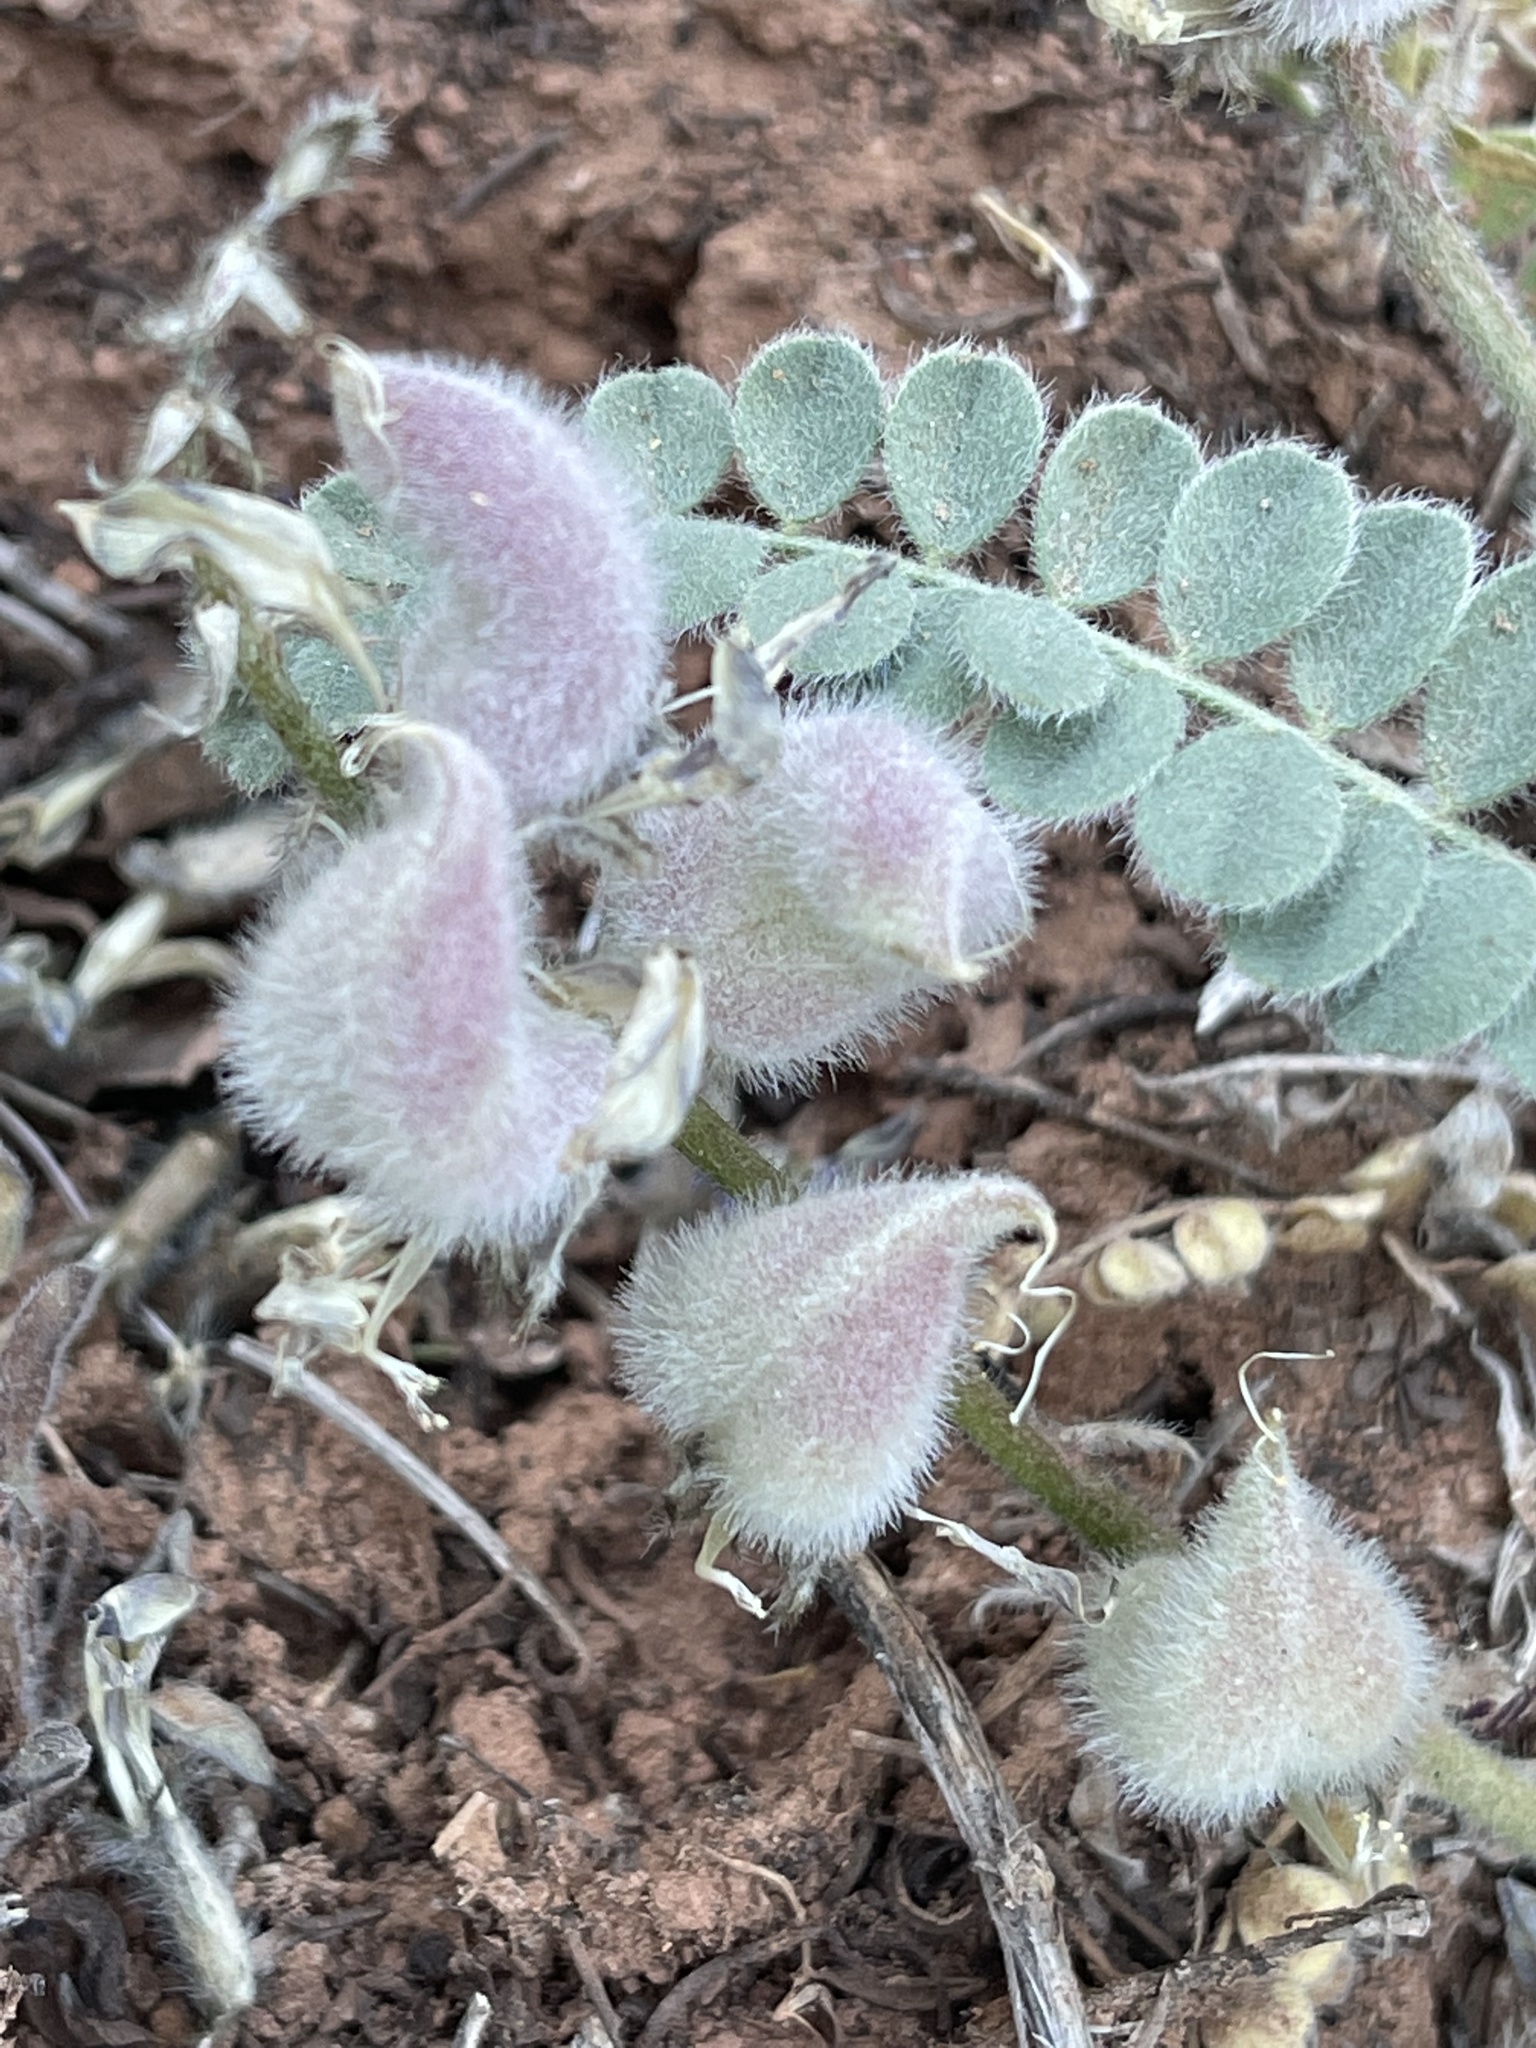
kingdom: Plantae
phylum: Tracheophyta
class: Magnoliopsida
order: Fabales
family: Fabaceae
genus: Astragalus
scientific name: Astragalus mollissimus
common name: Woolly locoweed
